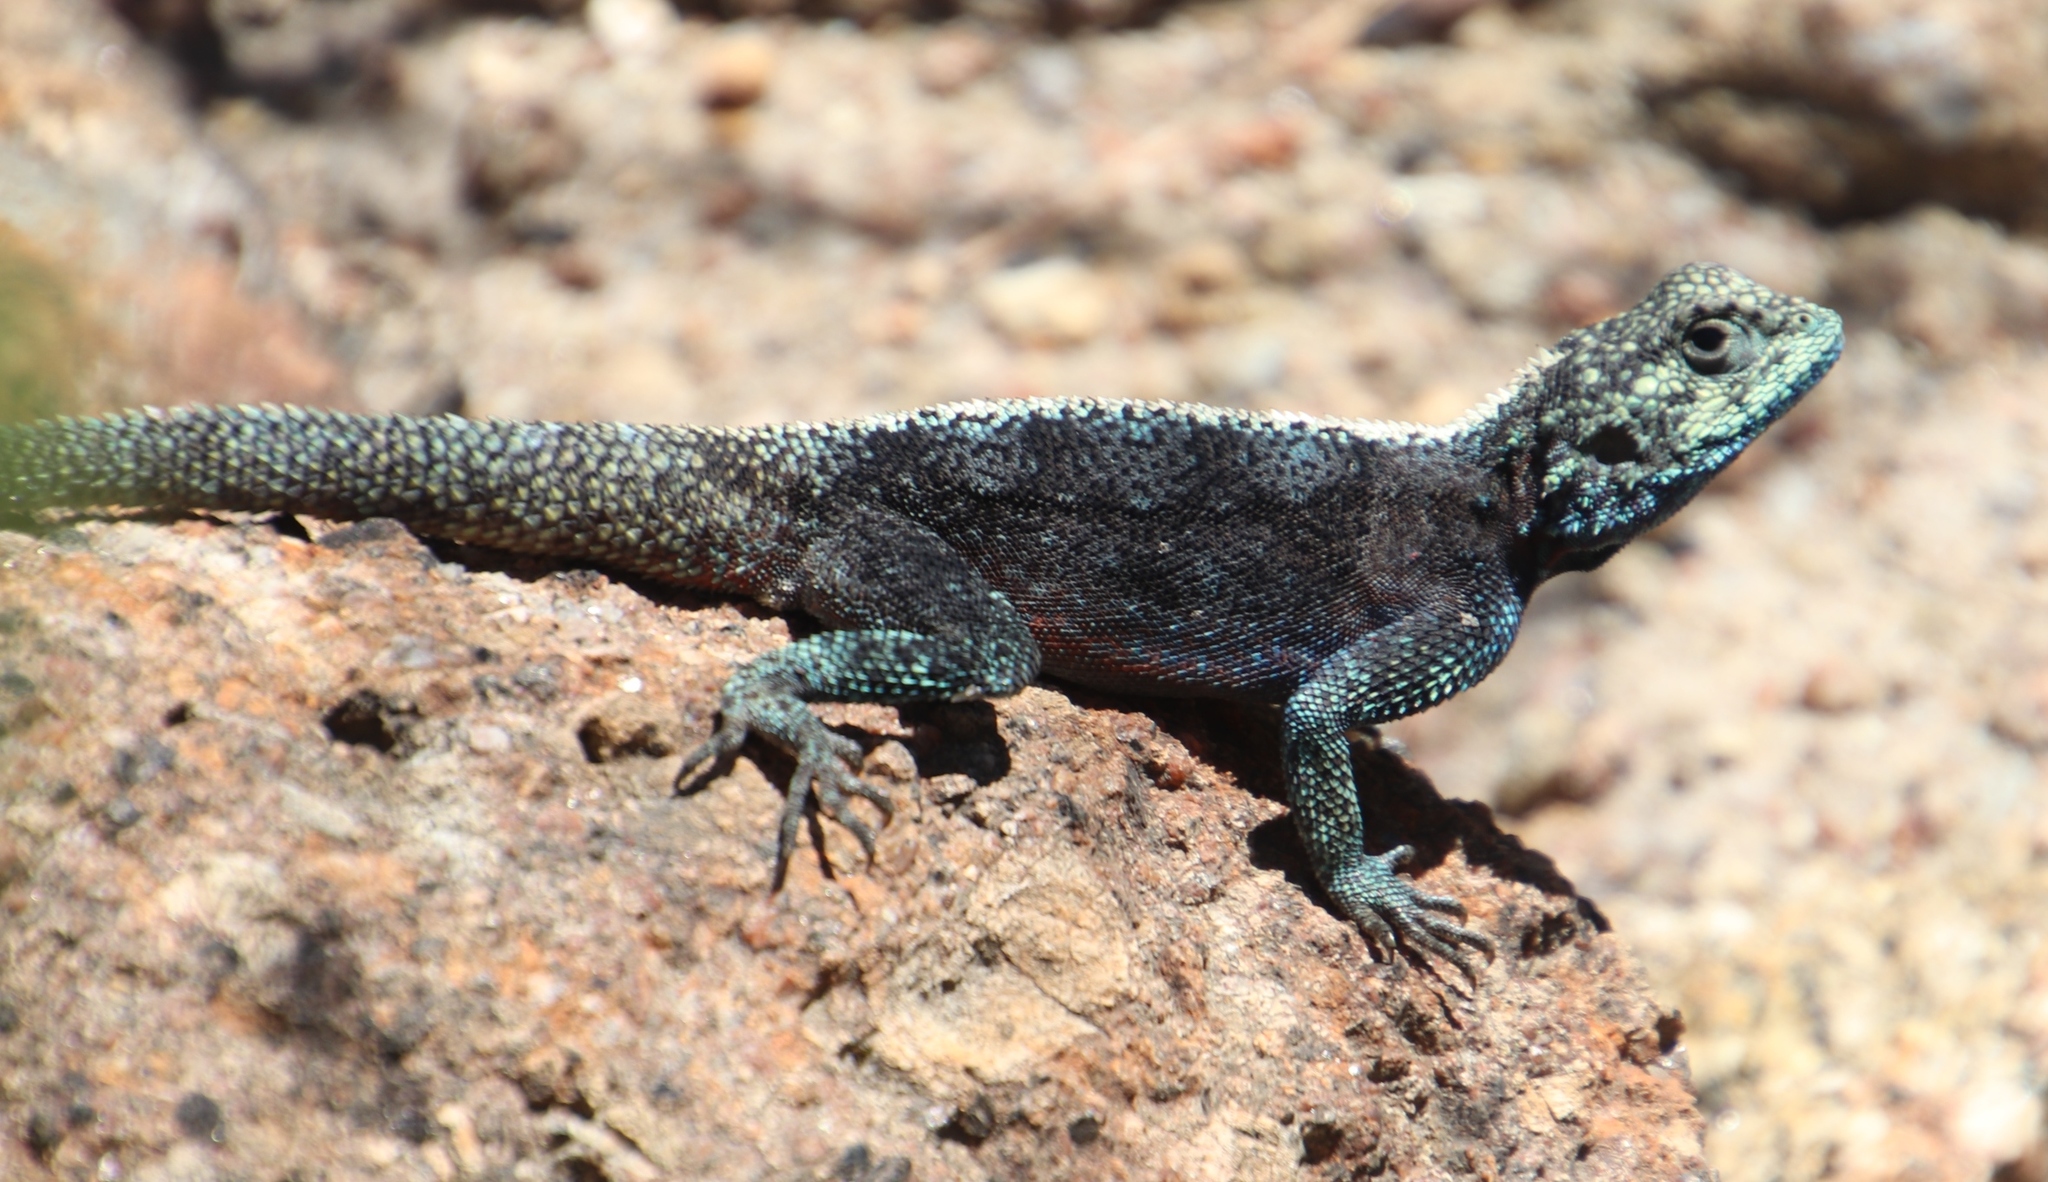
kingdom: Animalia
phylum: Chordata
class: Squamata
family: Agamidae
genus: Agama
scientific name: Agama atra
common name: Southern african rock agama
